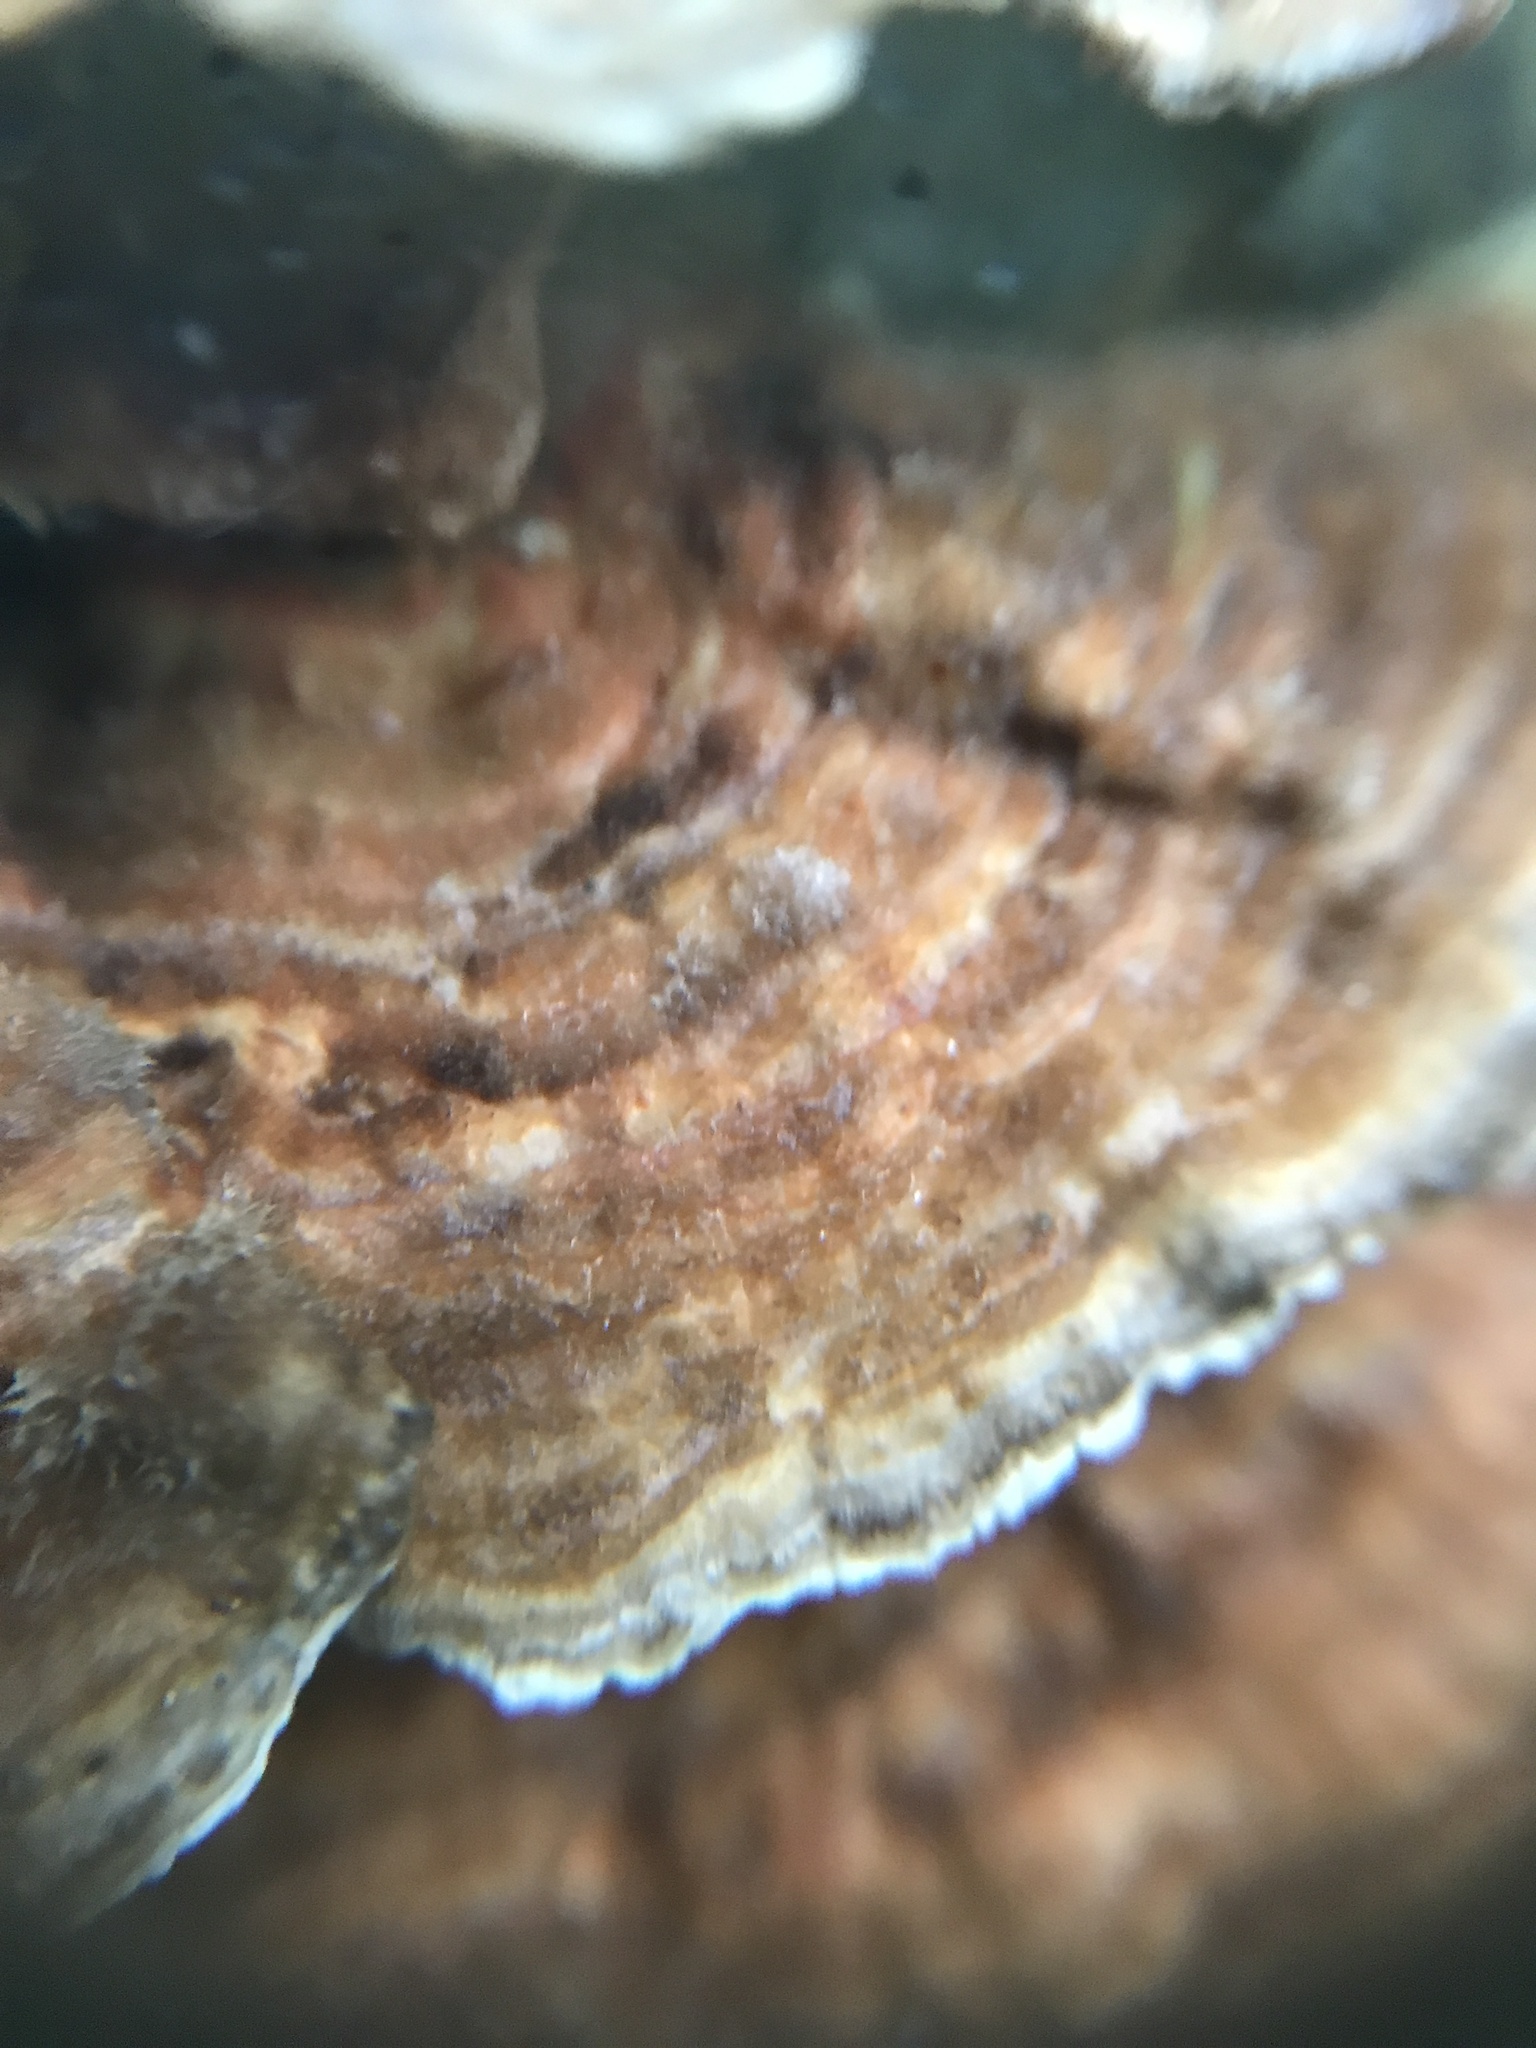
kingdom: Fungi
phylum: Basidiomycota
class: Agaricomycetes
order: Polyporales
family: Polyporaceae
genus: Lenzites
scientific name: Lenzites betulinus
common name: Birch mazegill
